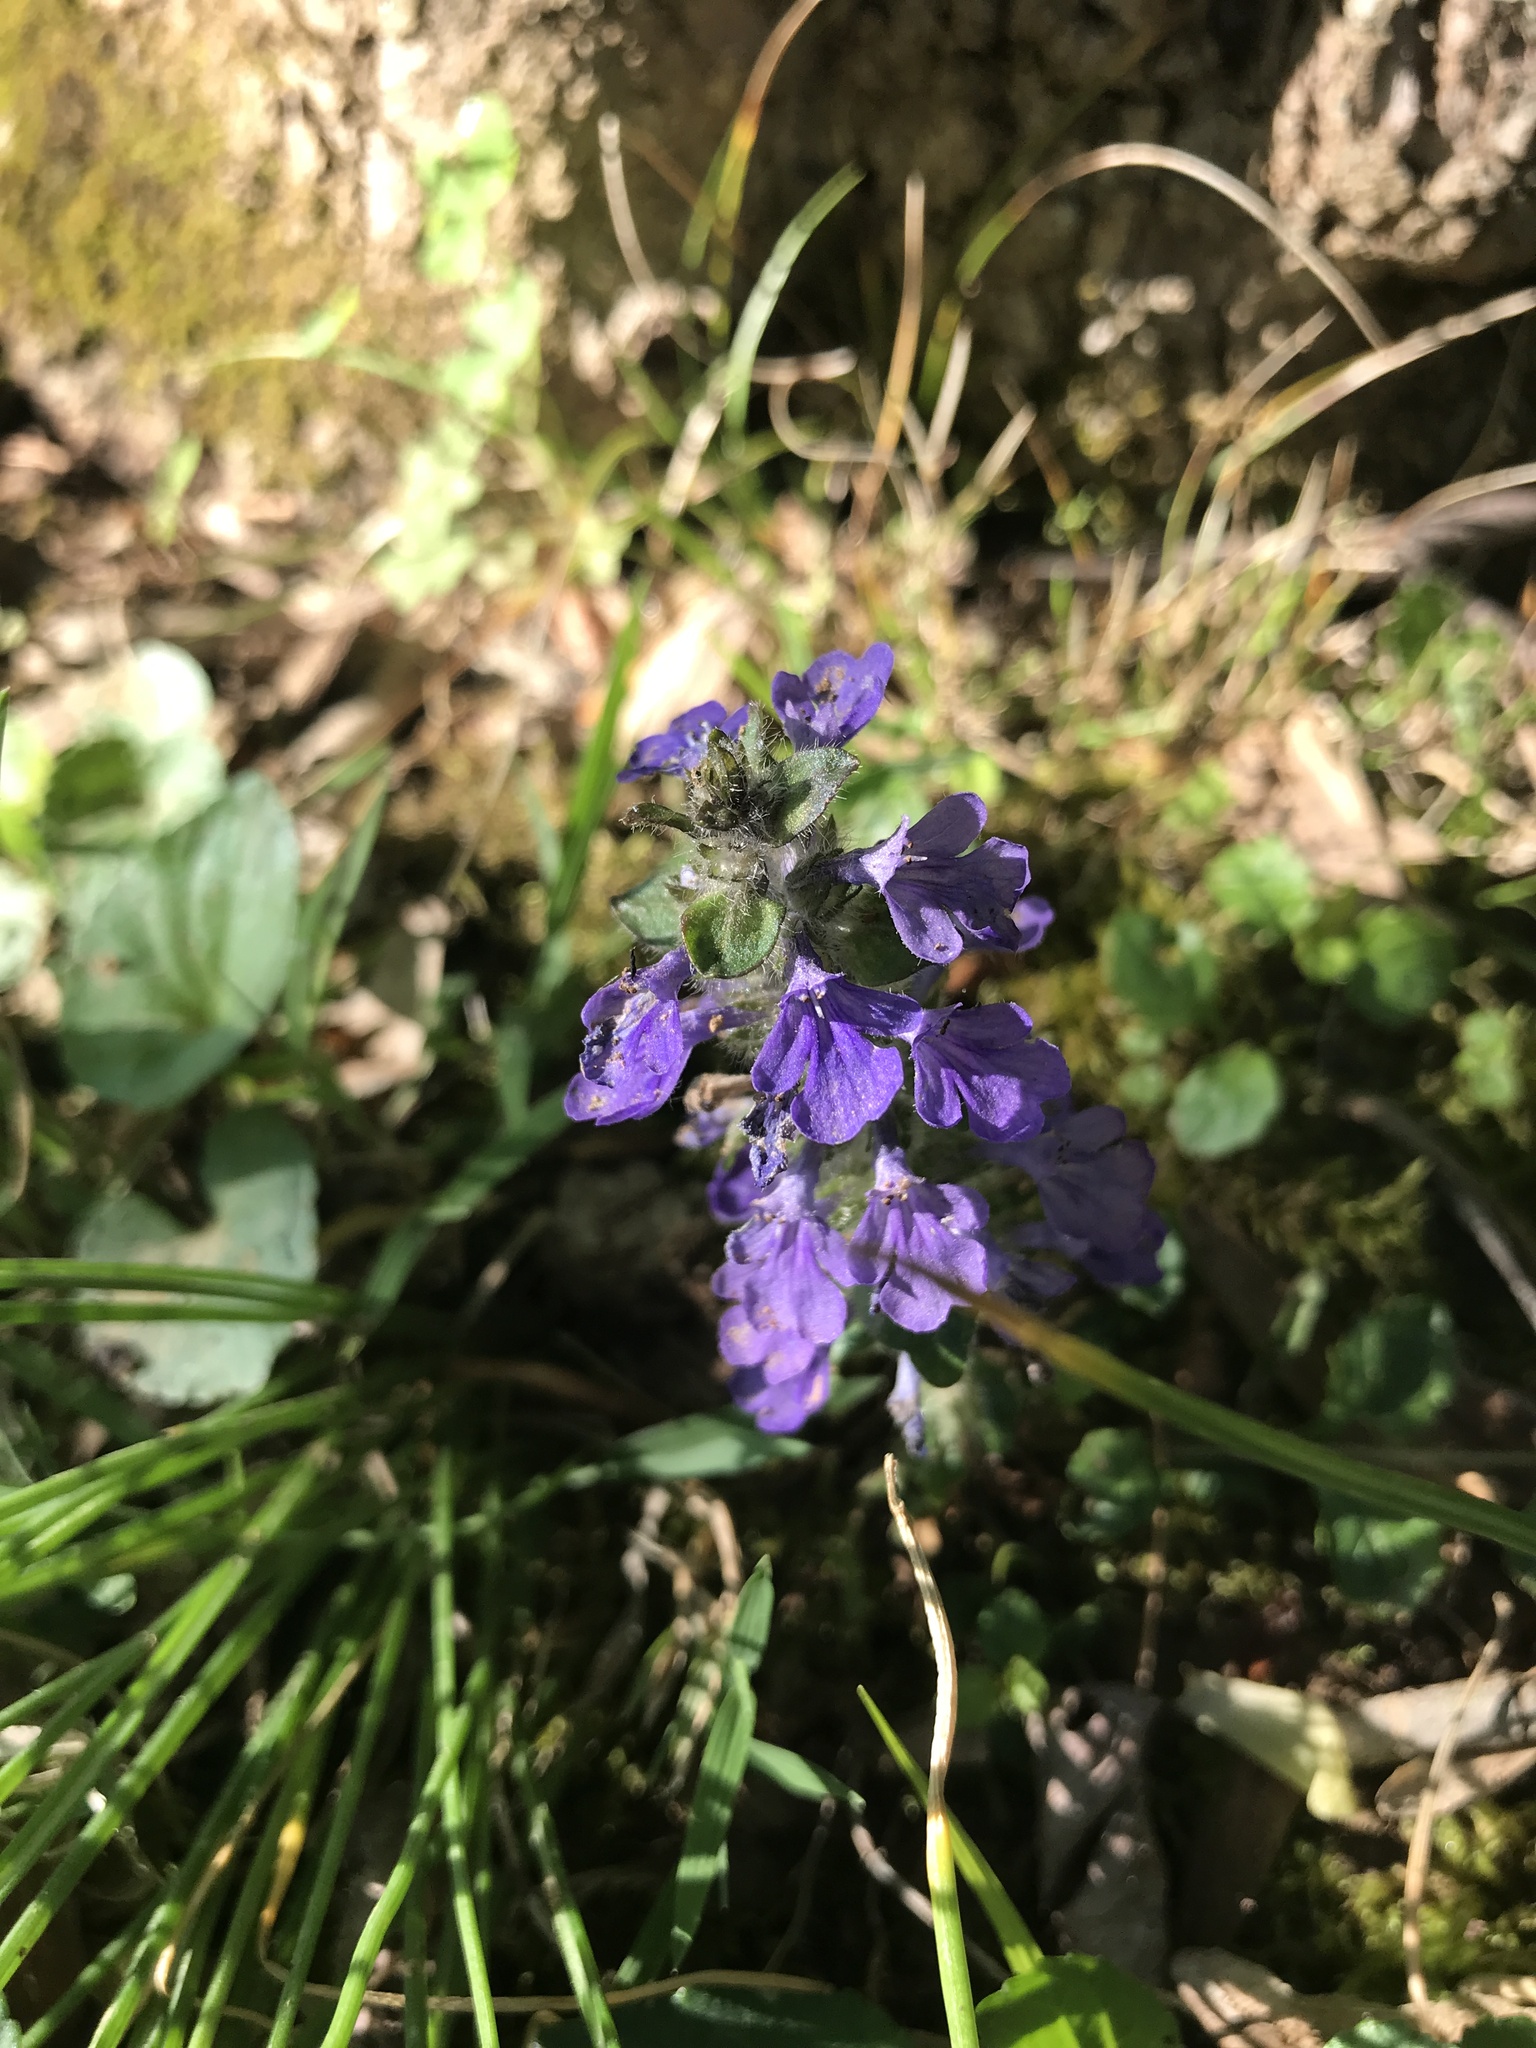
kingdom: Plantae
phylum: Tracheophyta
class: Magnoliopsida
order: Lamiales
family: Lamiaceae
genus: Ajuga
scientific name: Ajuga reptans
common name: Bugle
